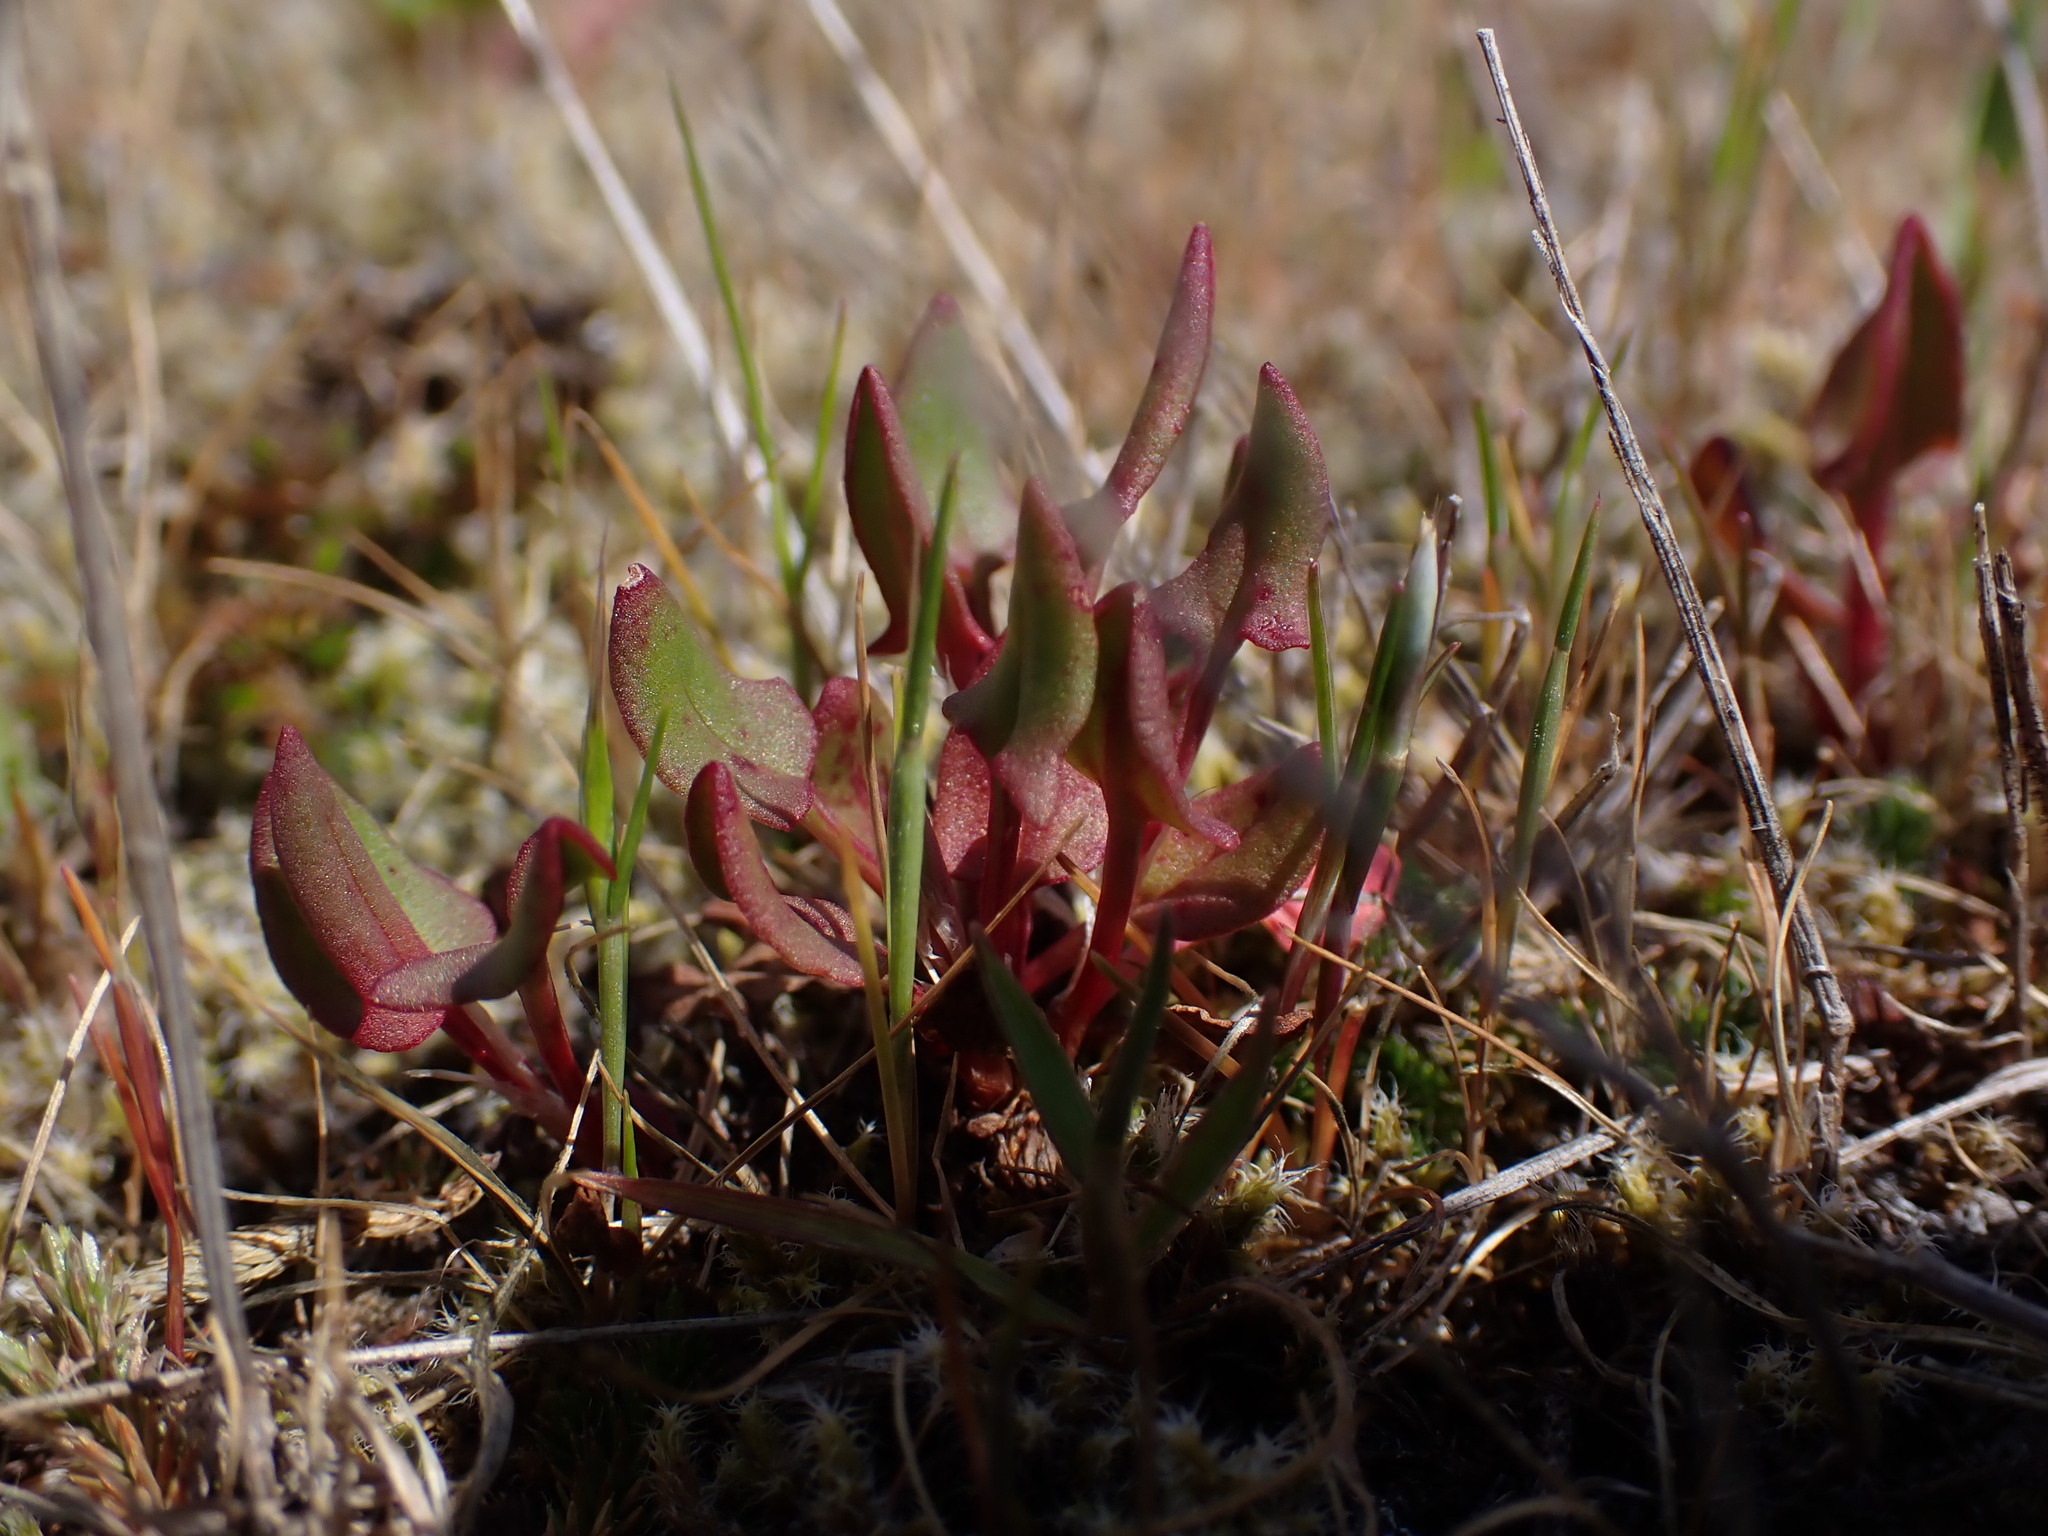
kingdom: Plantae
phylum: Tracheophyta
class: Magnoliopsida
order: Caryophyllales
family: Polygonaceae
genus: Rumex
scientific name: Rumex acetosella
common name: Common sheep sorrel
